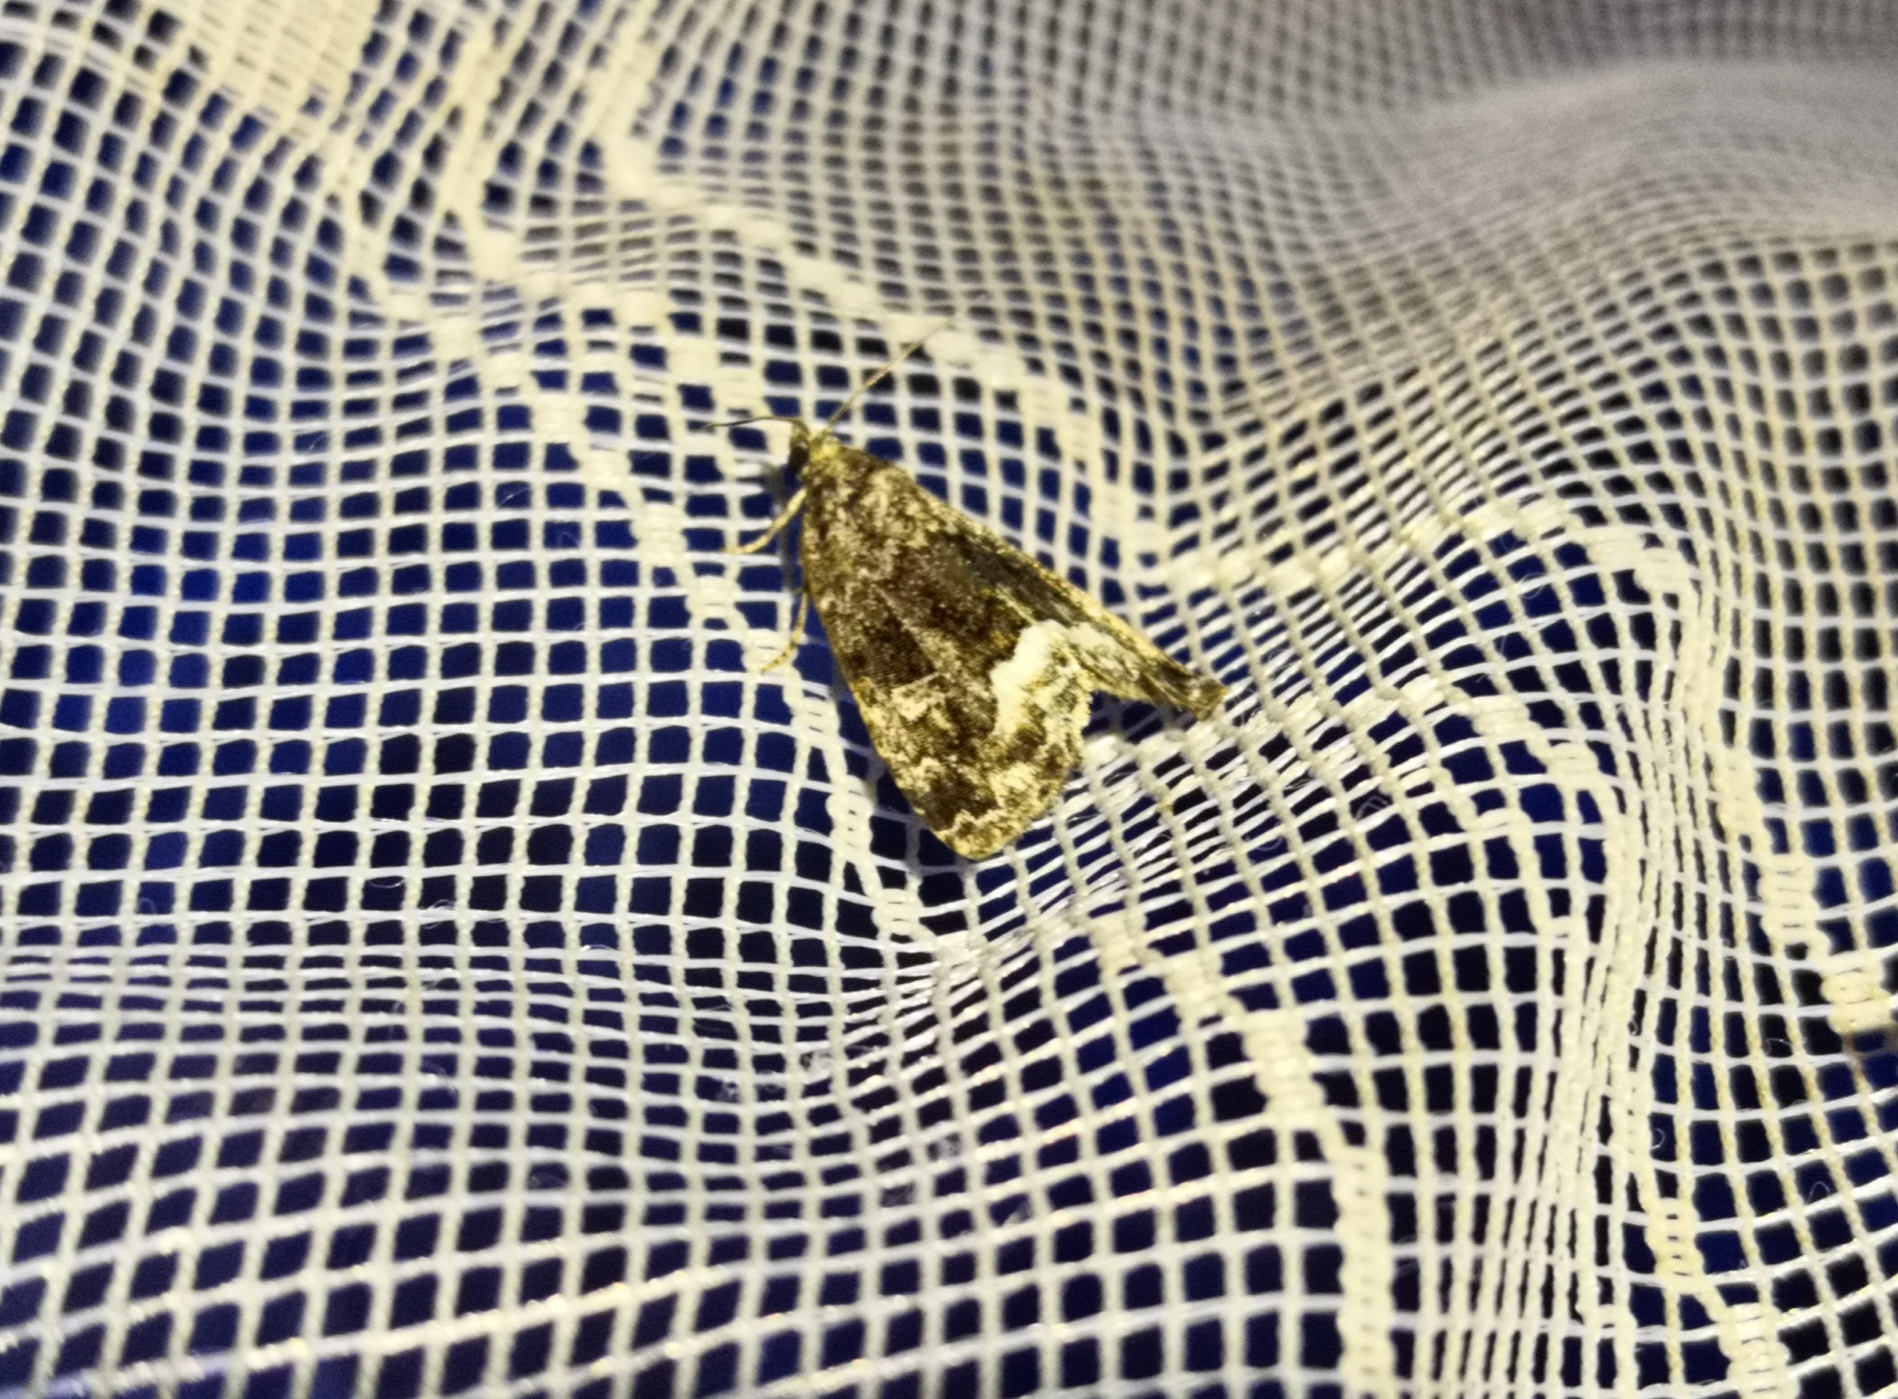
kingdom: Animalia
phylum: Arthropoda
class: Insecta
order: Lepidoptera
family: Noctuidae
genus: Deltote
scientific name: Deltote pygarga
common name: Marbled white spot
